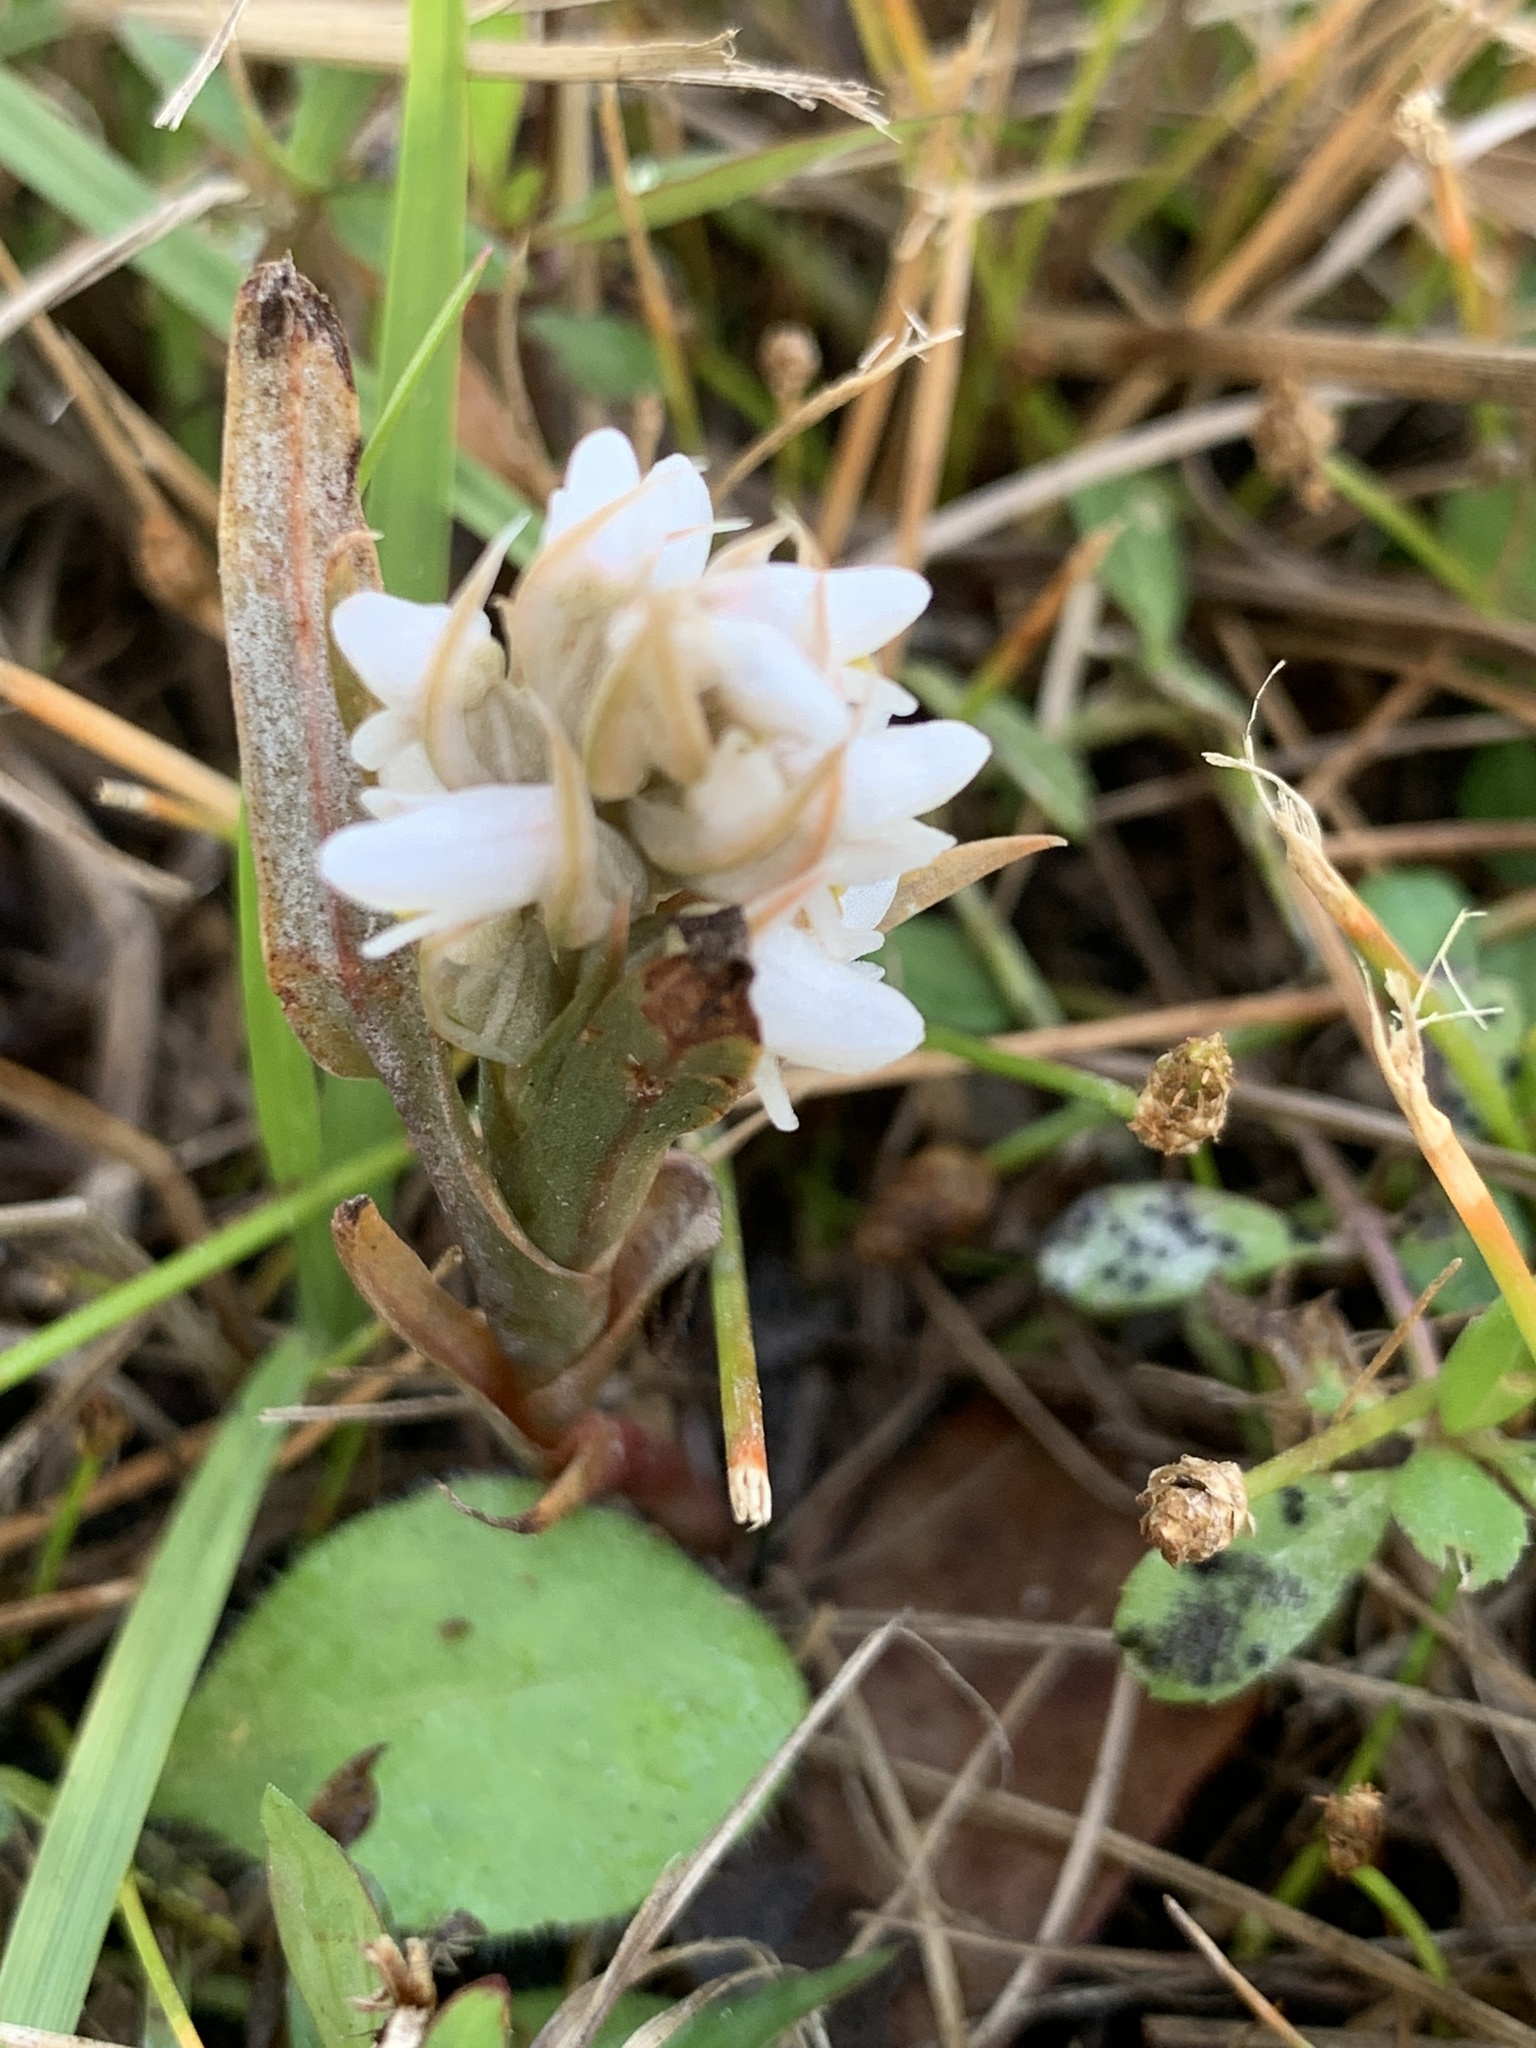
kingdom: Plantae
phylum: Tracheophyta
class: Liliopsida
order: Asparagales
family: Orchidaceae
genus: Zeuxine
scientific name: Zeuxine strateumatica
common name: Soldier's orchid
